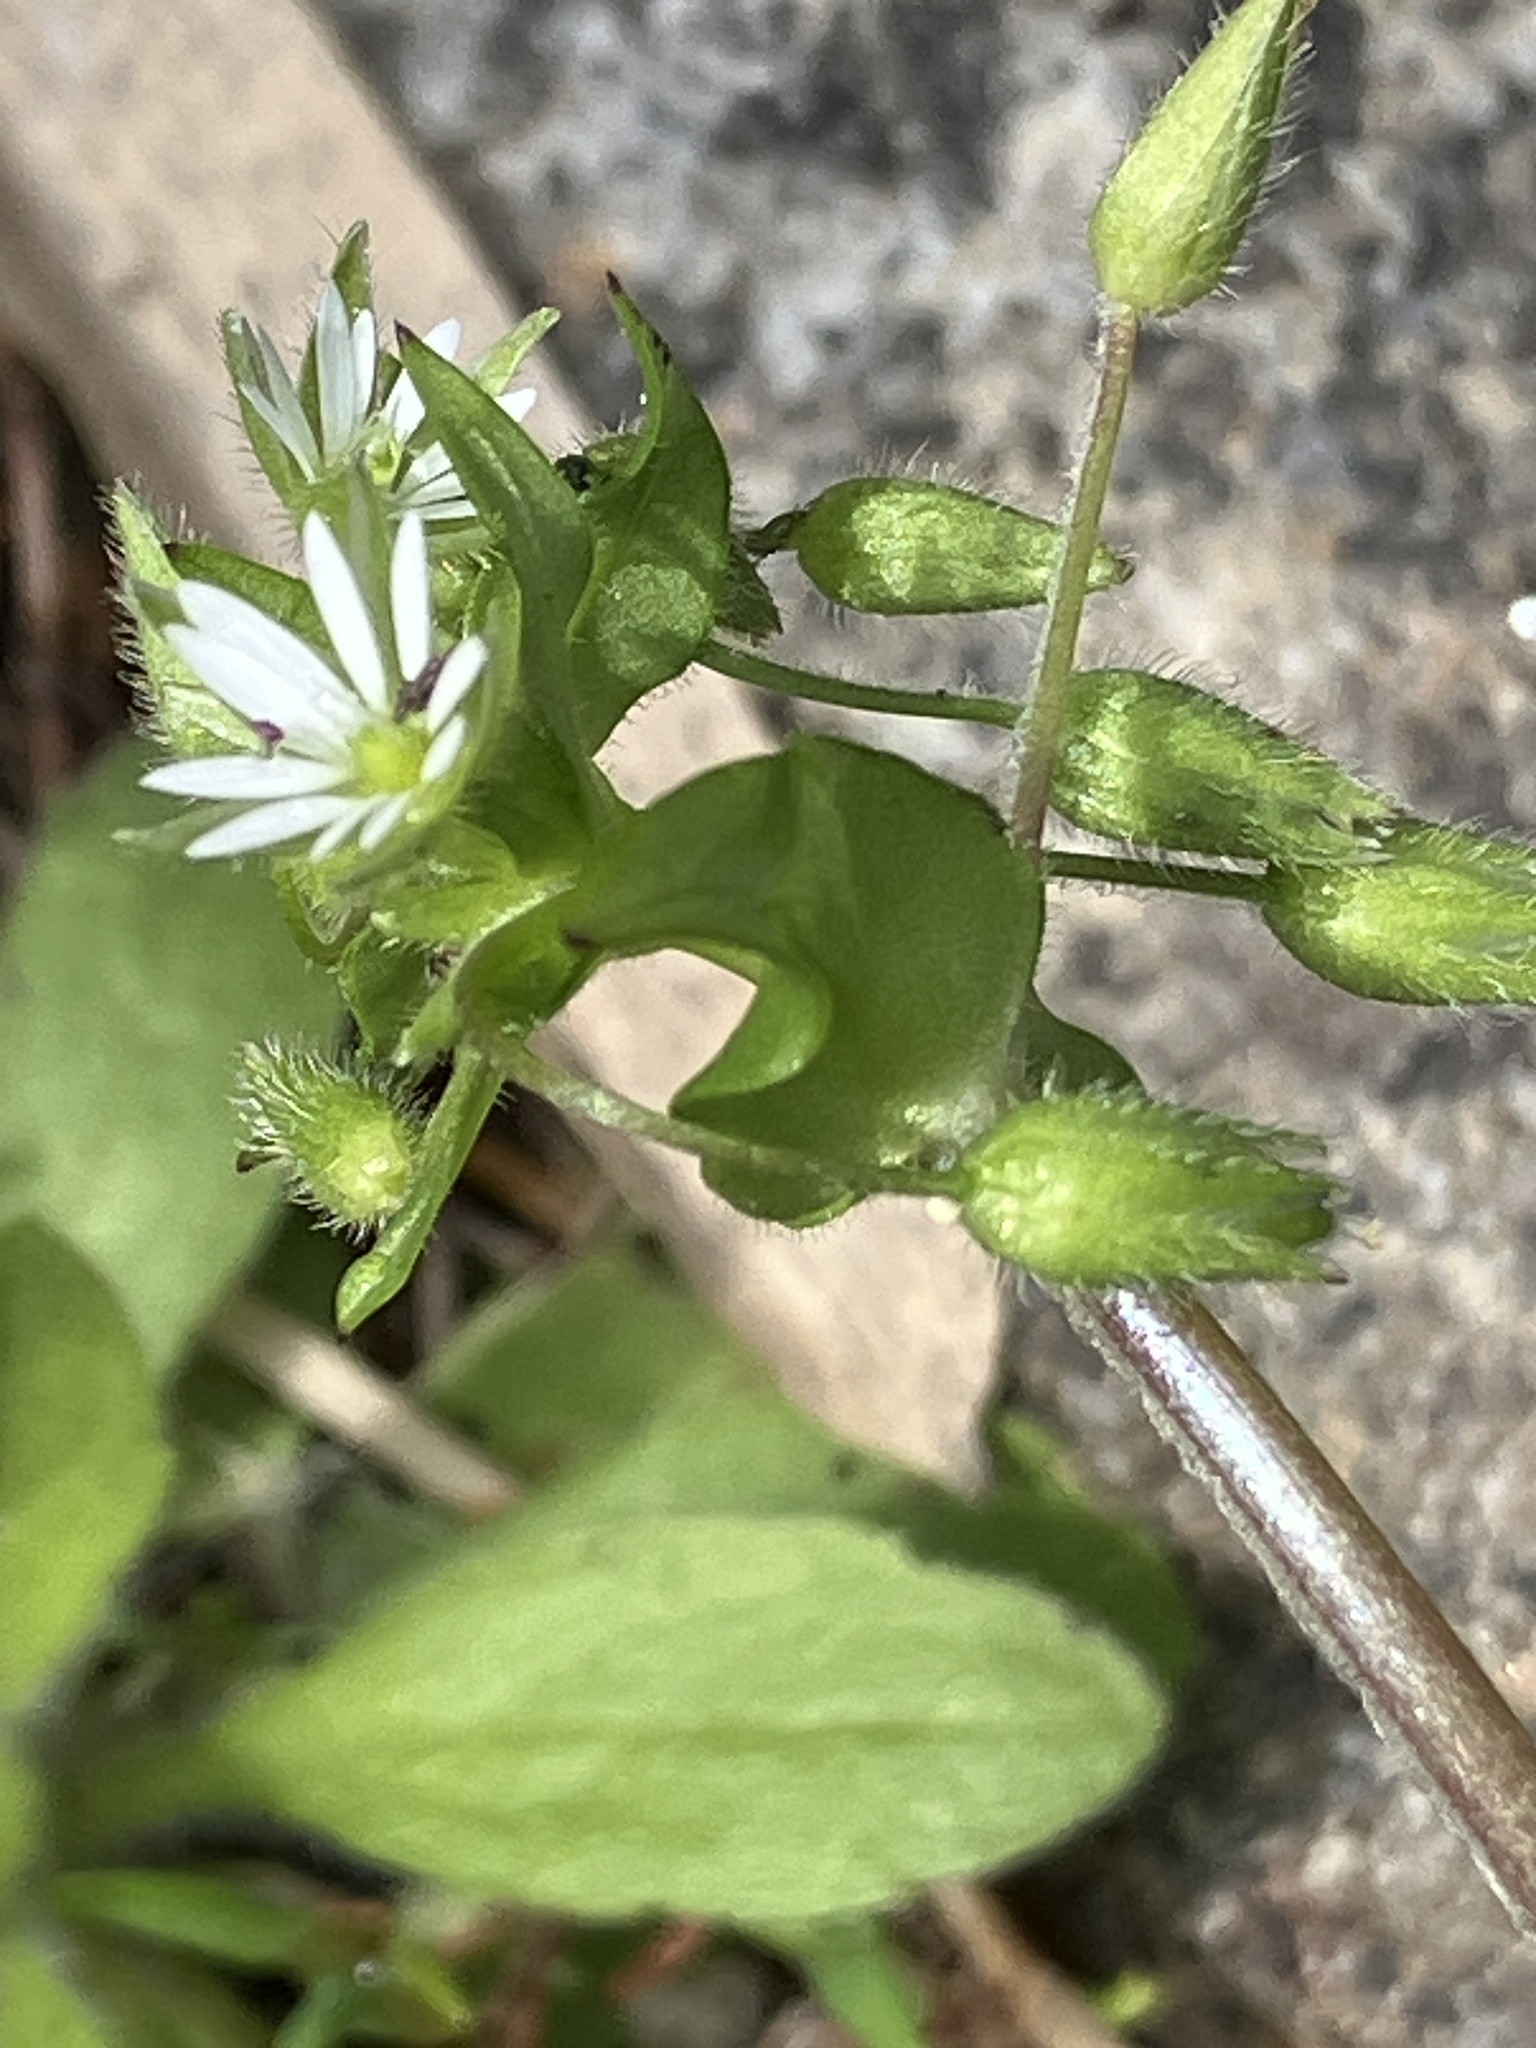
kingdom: Plantae
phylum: Tracheophyta
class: Magnoliopsida
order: Caryophyllales
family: Caryophyllaceae
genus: Stellaria
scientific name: Stellaria
